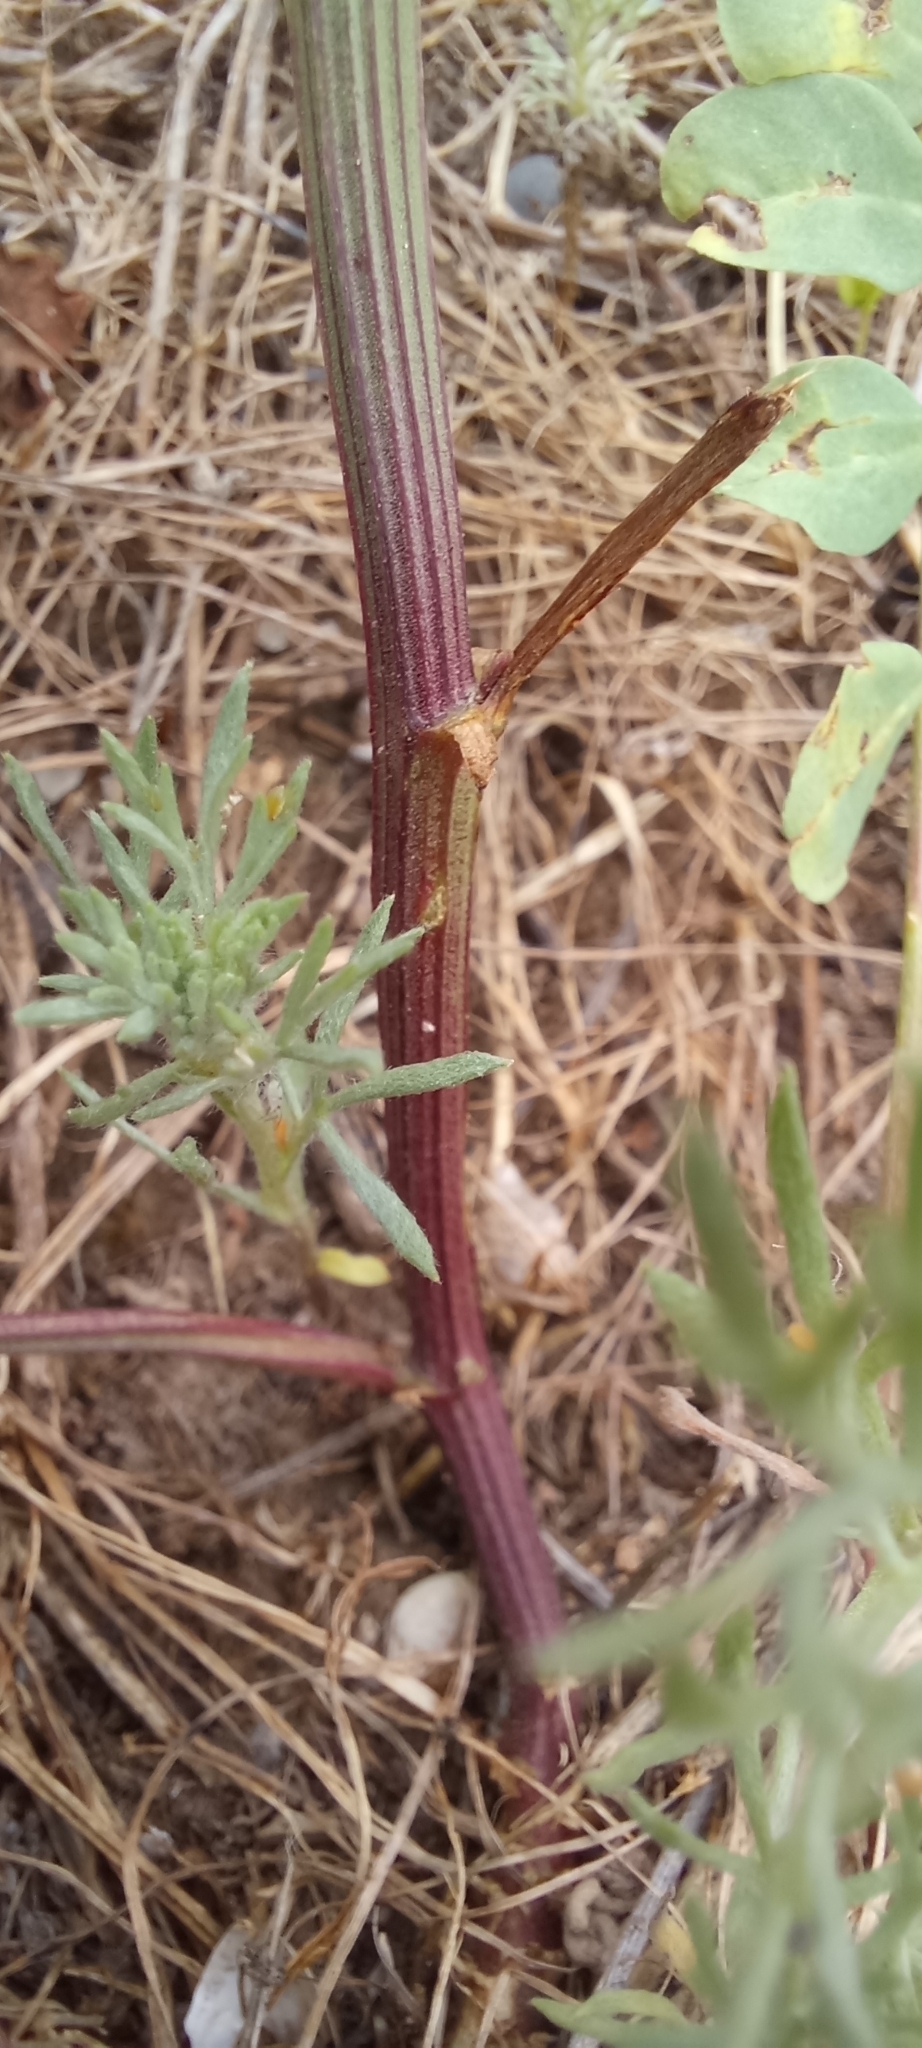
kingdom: Plantae
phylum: Tracheophyta
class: Magnoliopsida
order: Fabales
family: Fabaceae
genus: Coronilla
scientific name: Coronilla varia
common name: Crownvetch
